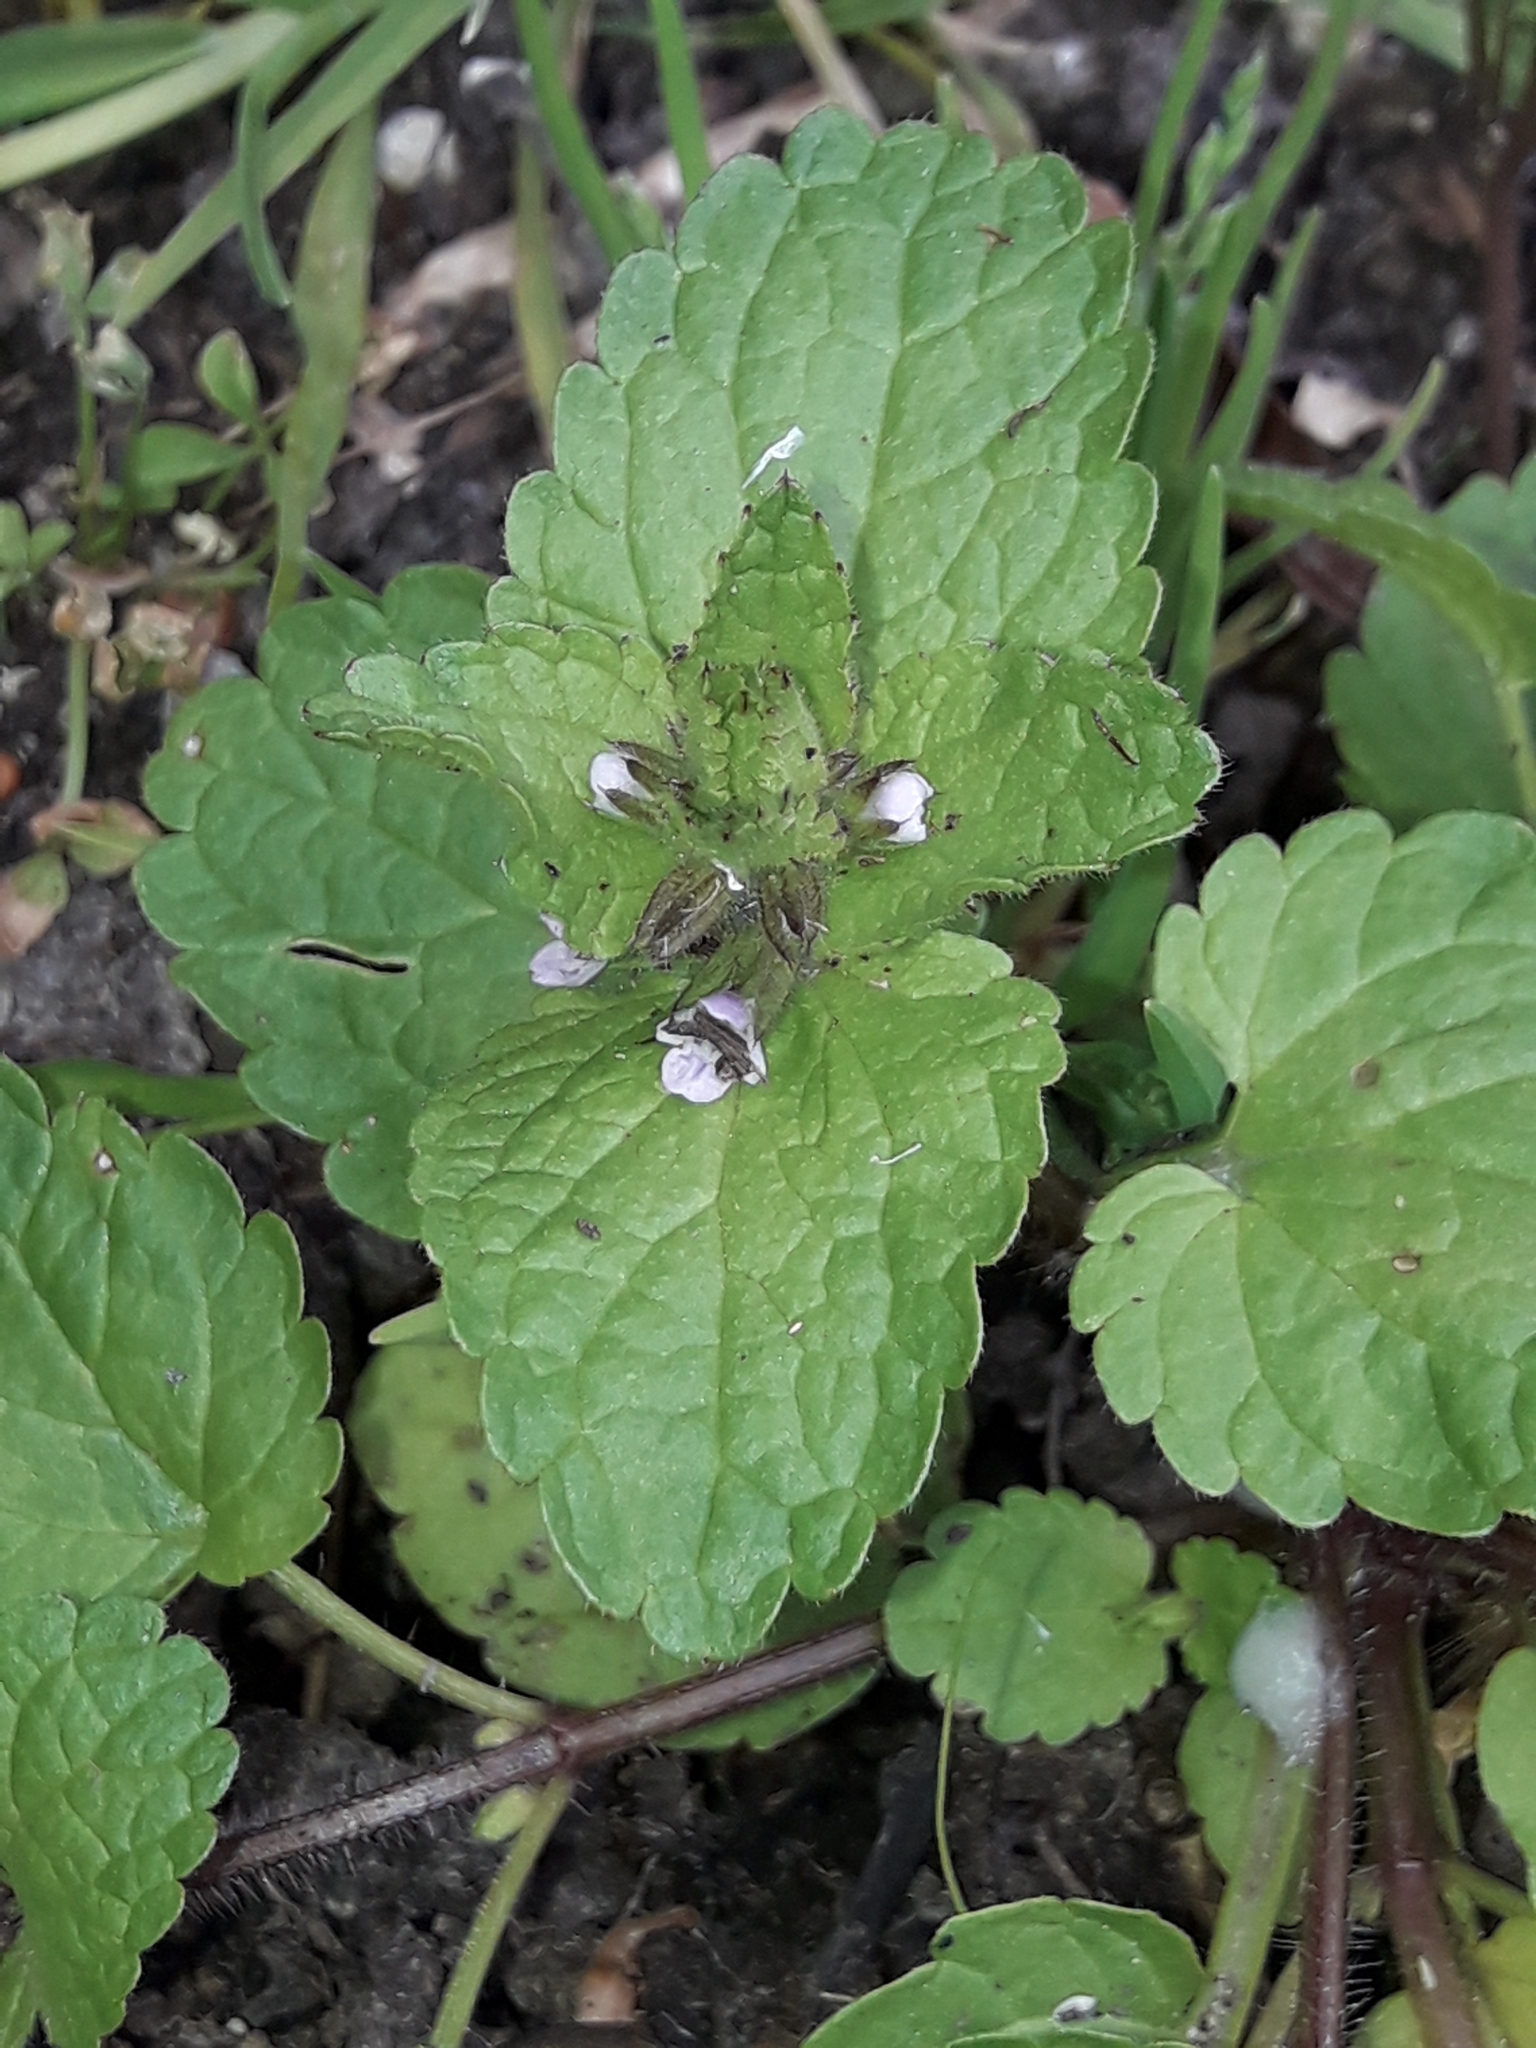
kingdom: Plantae
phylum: Tracheophyta
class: Magnoliopsida
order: Lamiales
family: Lamiaceae
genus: Stachys
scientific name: Stachys arvensis
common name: Field woundwort
